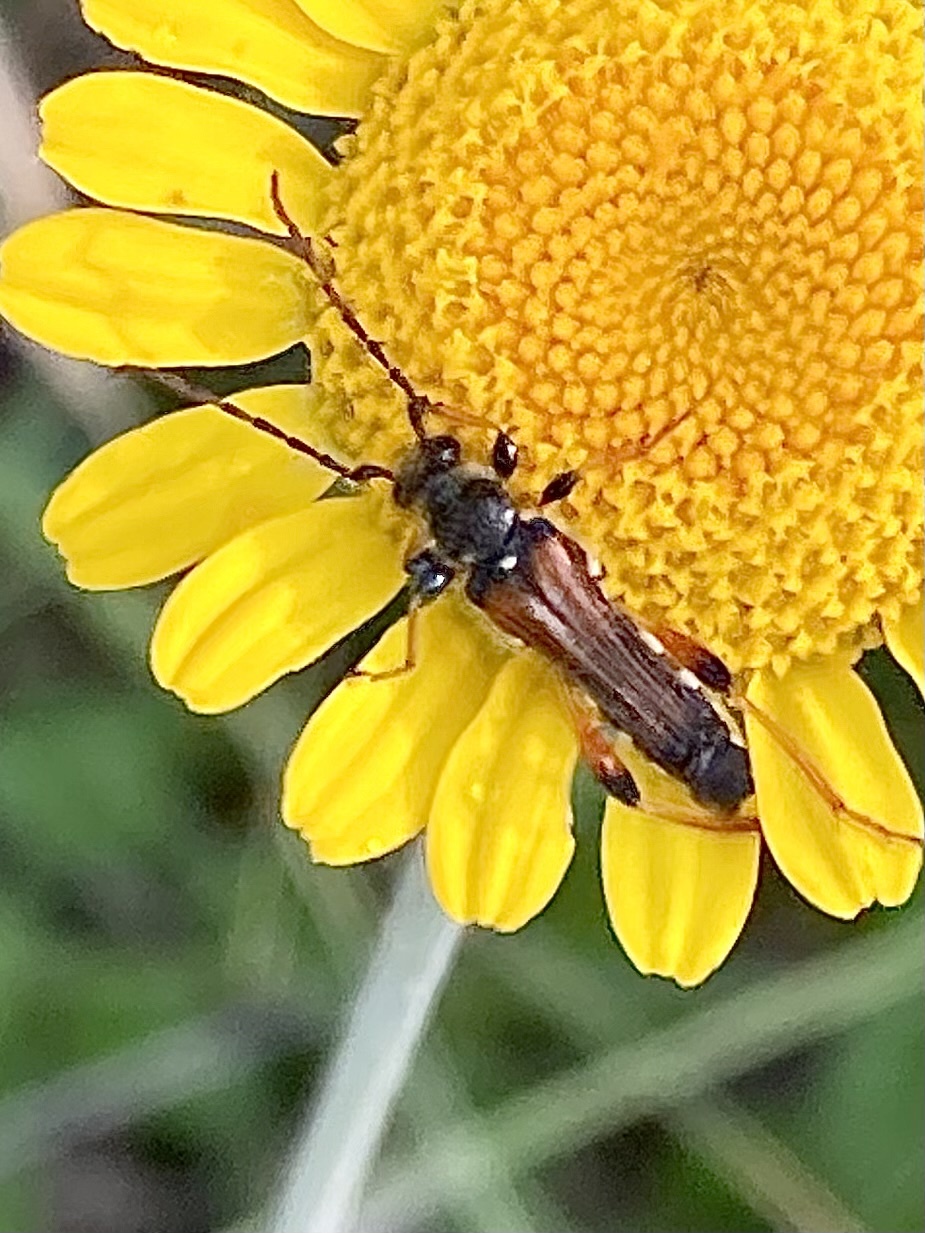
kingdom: Animalia
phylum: Arthropoda
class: Insecta
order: Coleoptera
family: Cerambycidae
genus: Stenopterus
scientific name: Stenopterus rufus
